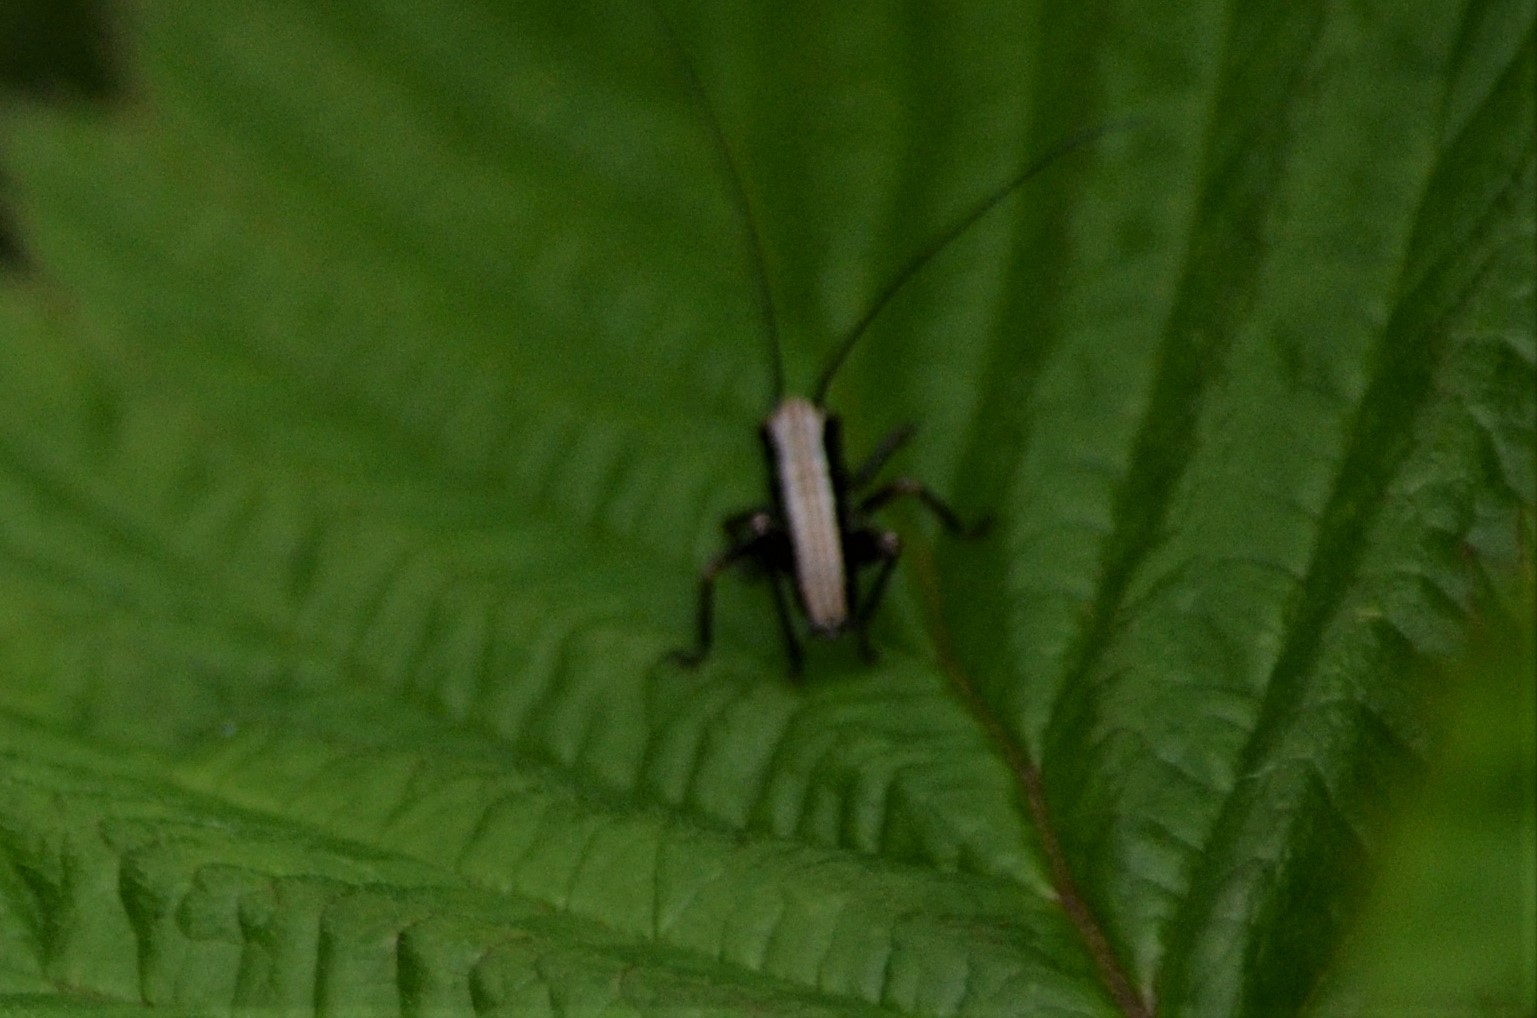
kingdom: Animalia
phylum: Arthropoda
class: Insecta
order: Orthoptera
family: Tettigoniidae
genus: Pholidoptera
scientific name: Pholidoptera griseoaptera
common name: Dark bush-cricket
